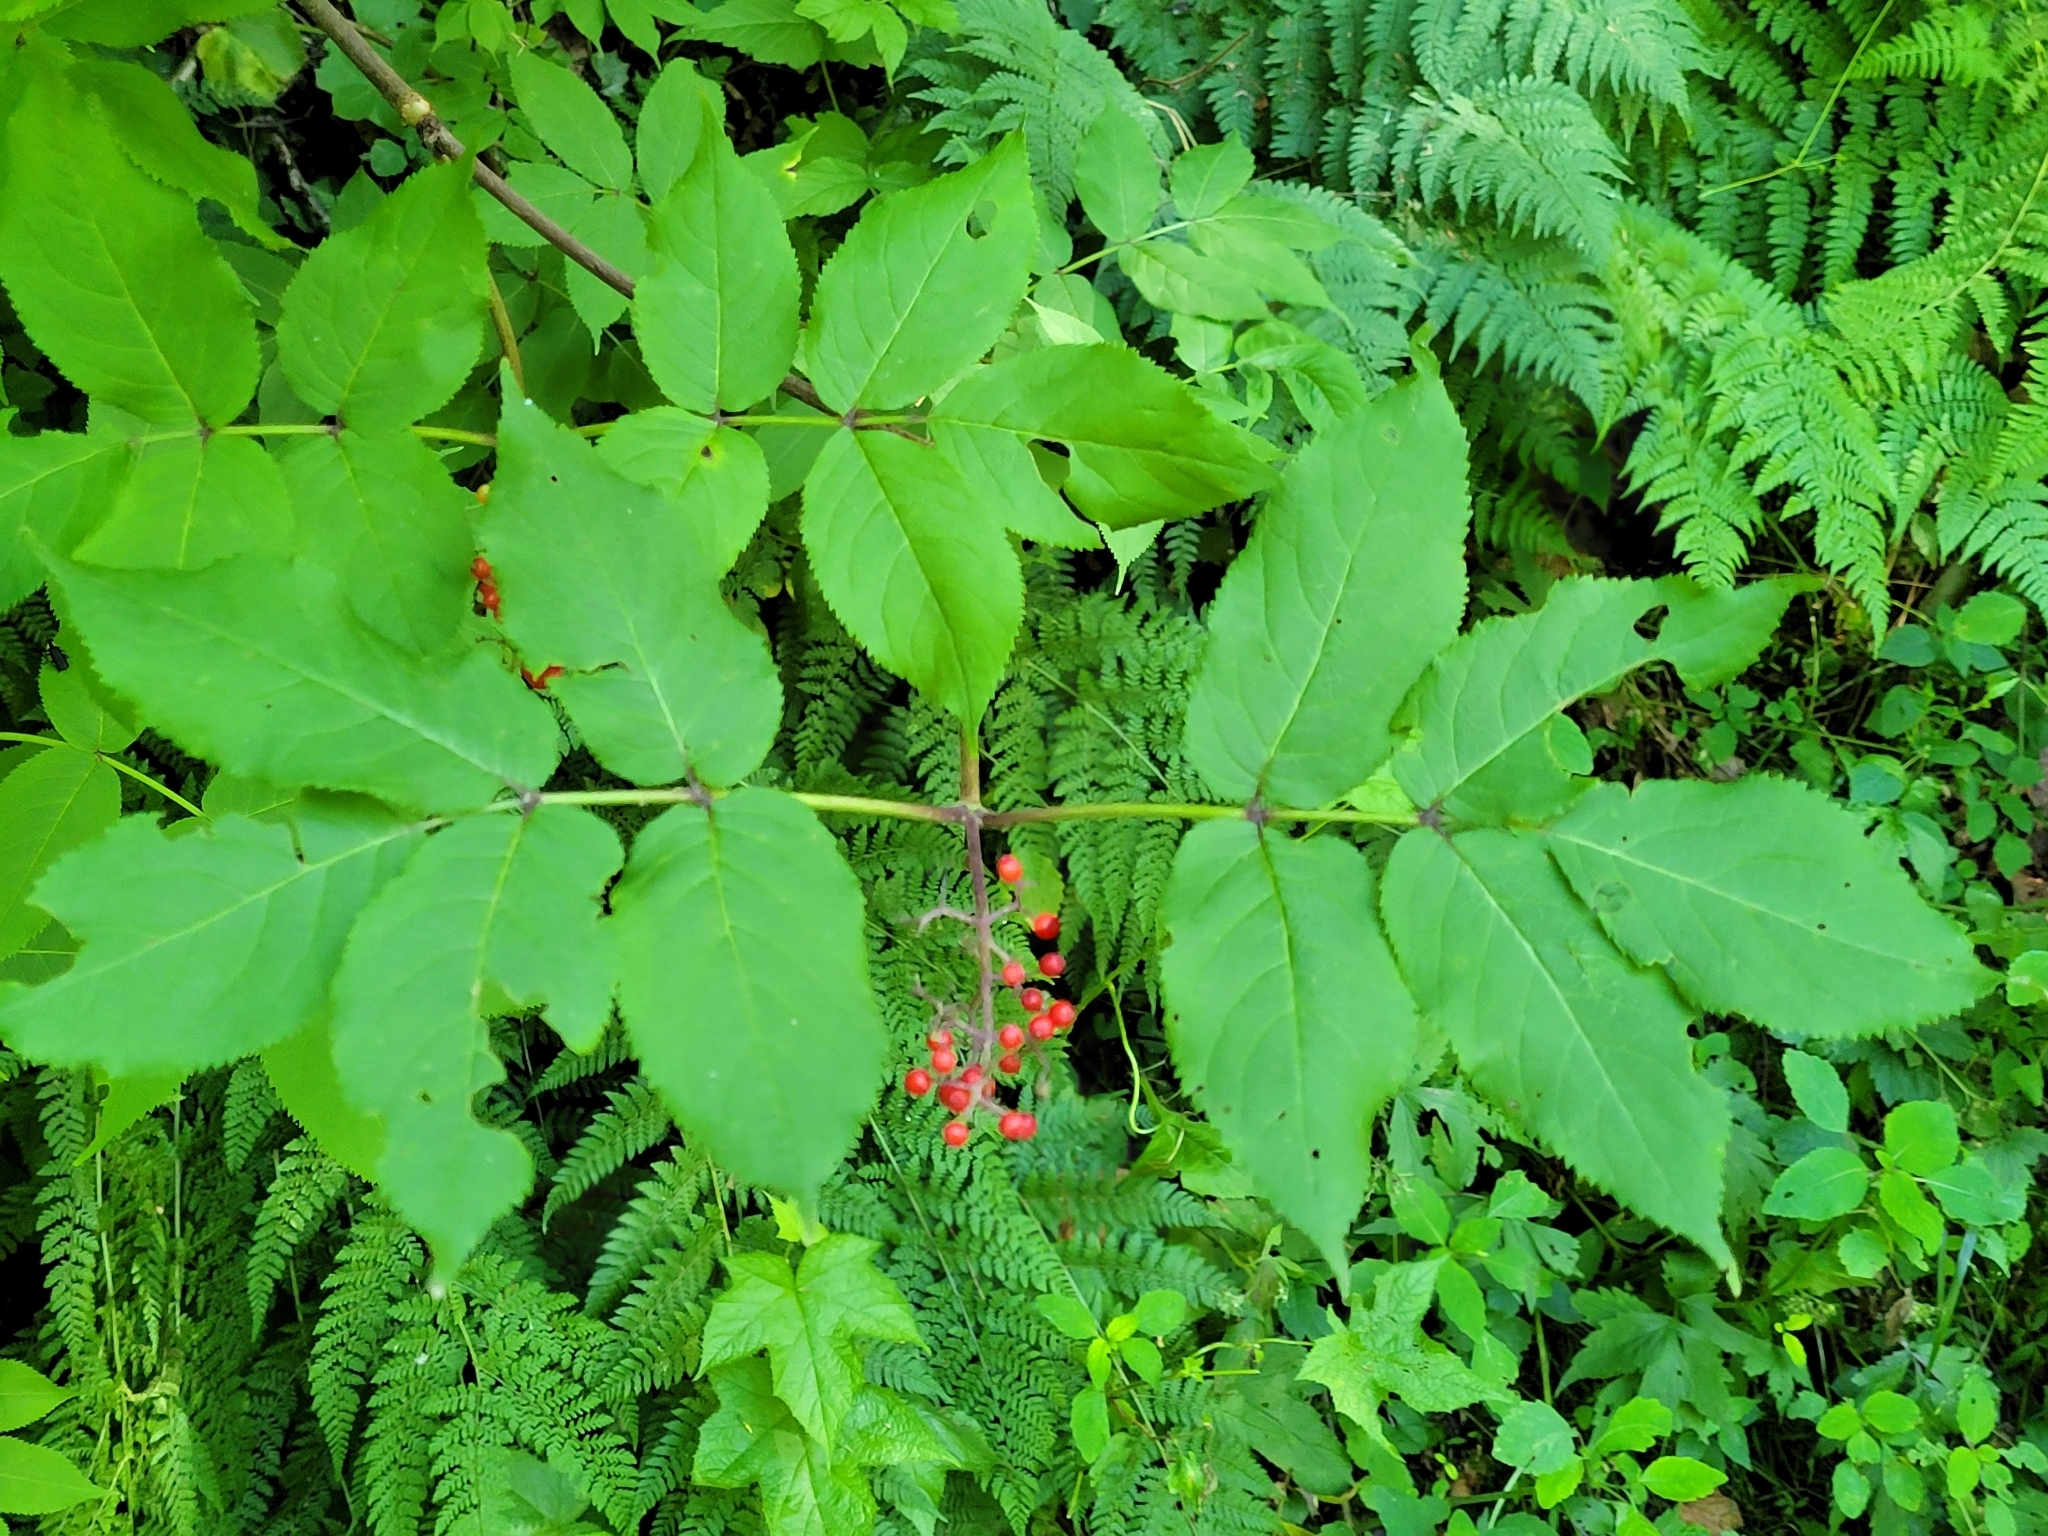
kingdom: Plantae
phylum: Tracheophyta
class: Magnoliopsida
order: Dipsacales
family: Viburnaceae
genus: Sambucus
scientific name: Sambucus racemosa
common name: Red-berried elder
